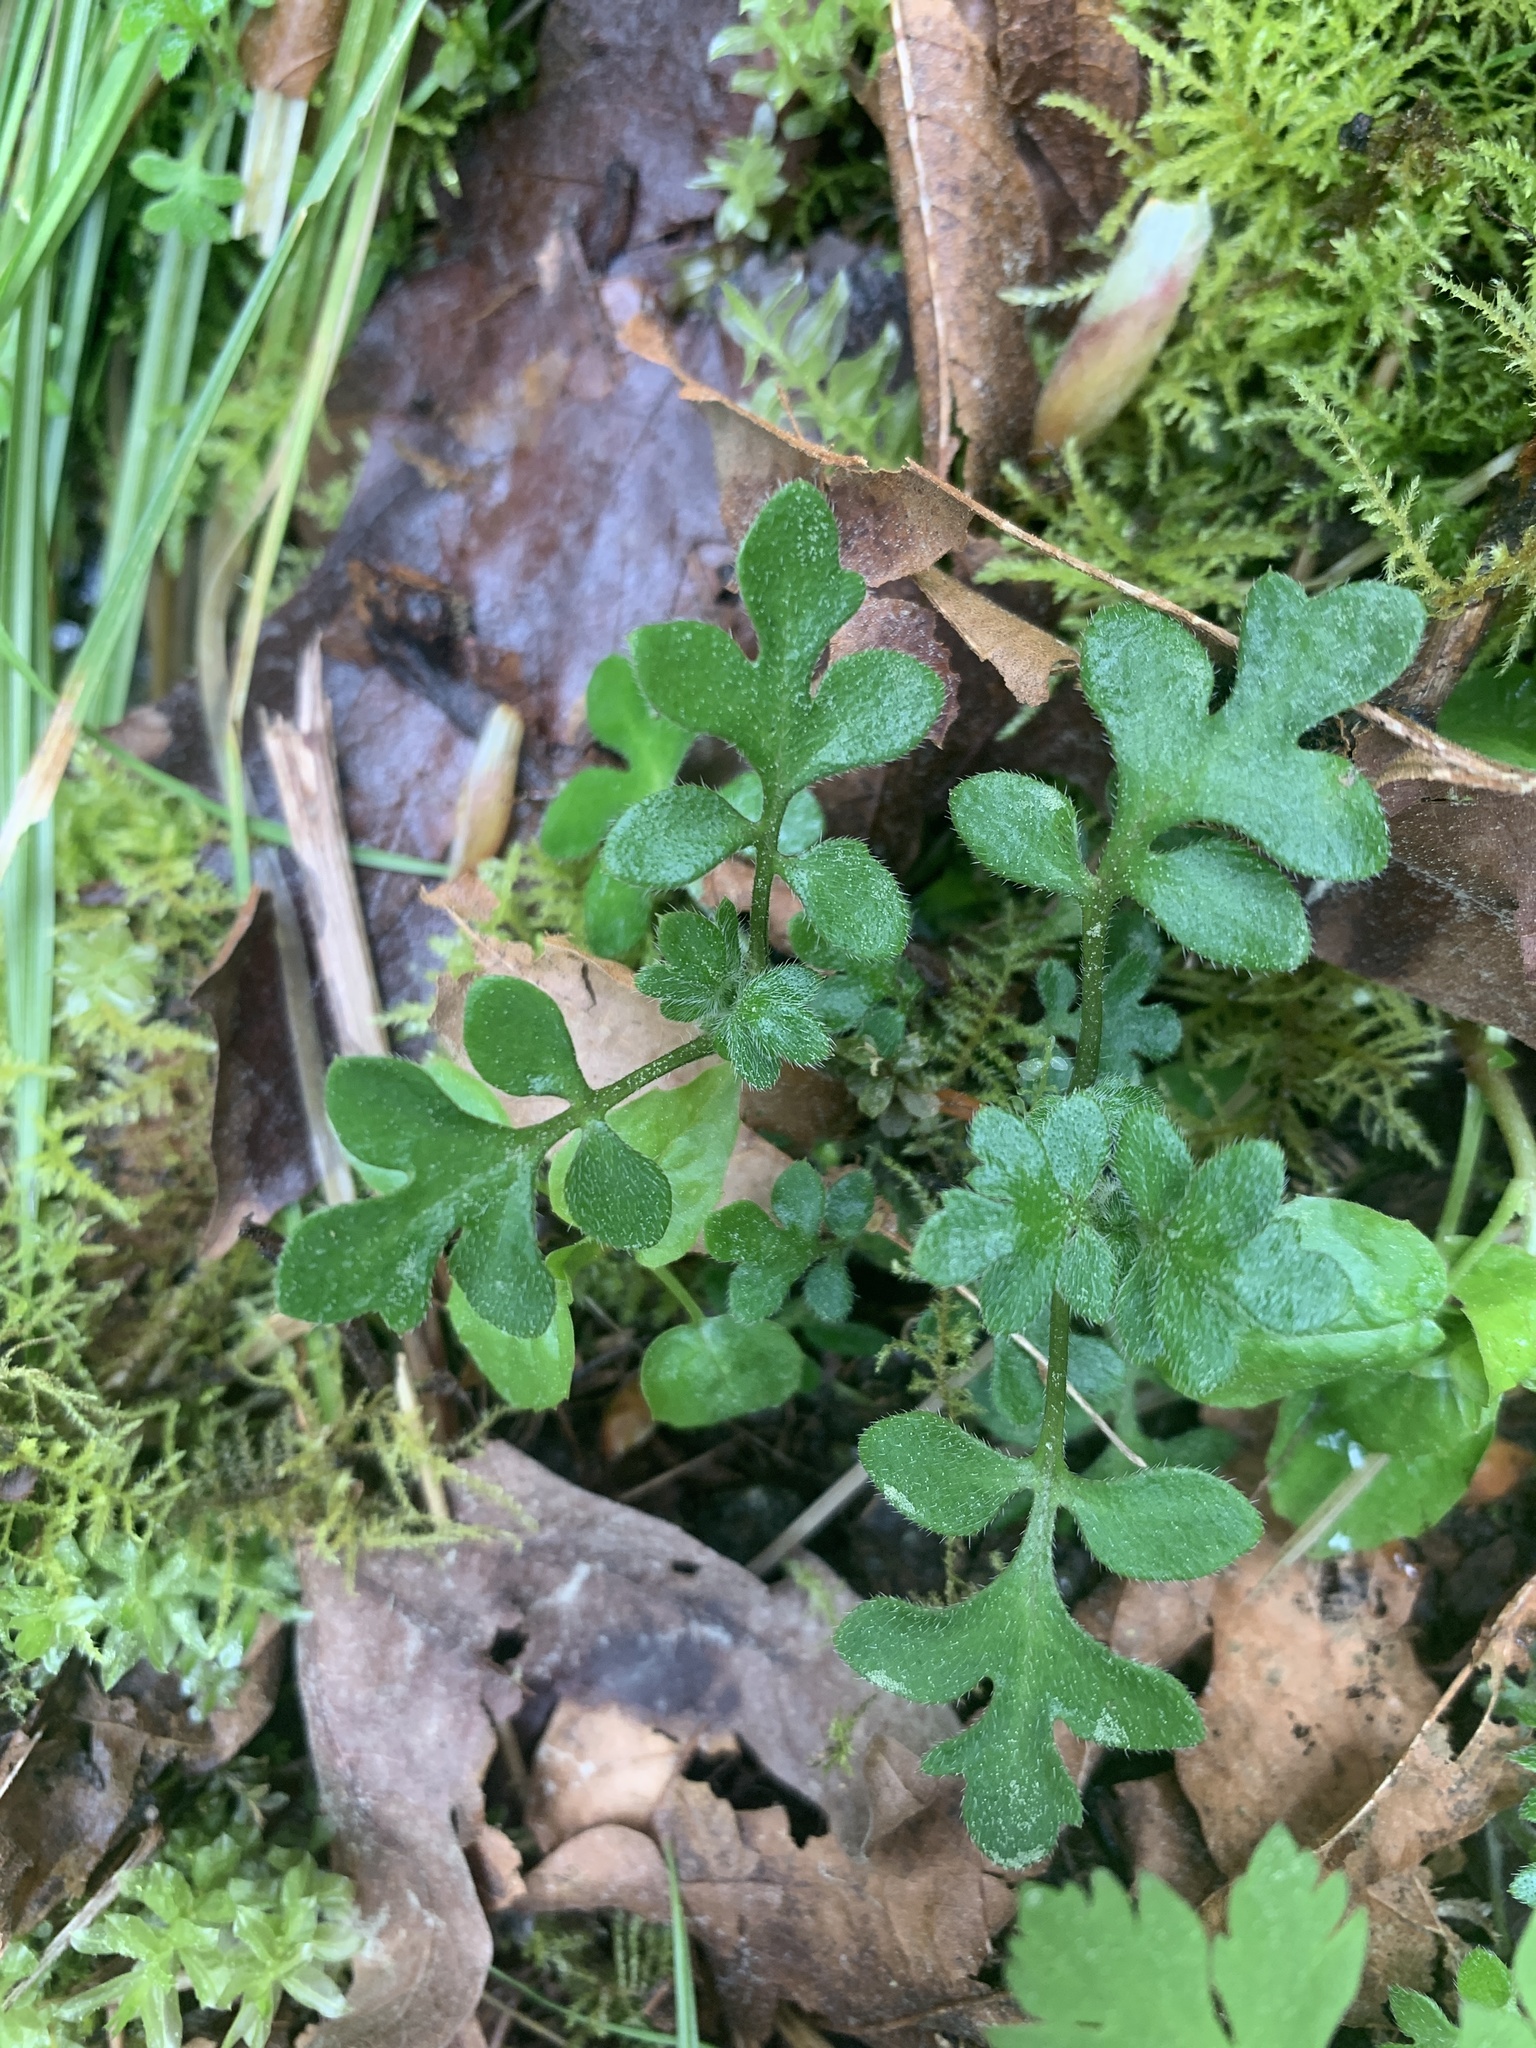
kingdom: Plantae
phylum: Tracheophyta
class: Magnoliopsida
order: Boraginales
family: Hydrophyllaceae
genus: Nemophila
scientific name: Nemophila parviflora
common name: Small-flowered baby-blue-eyes
